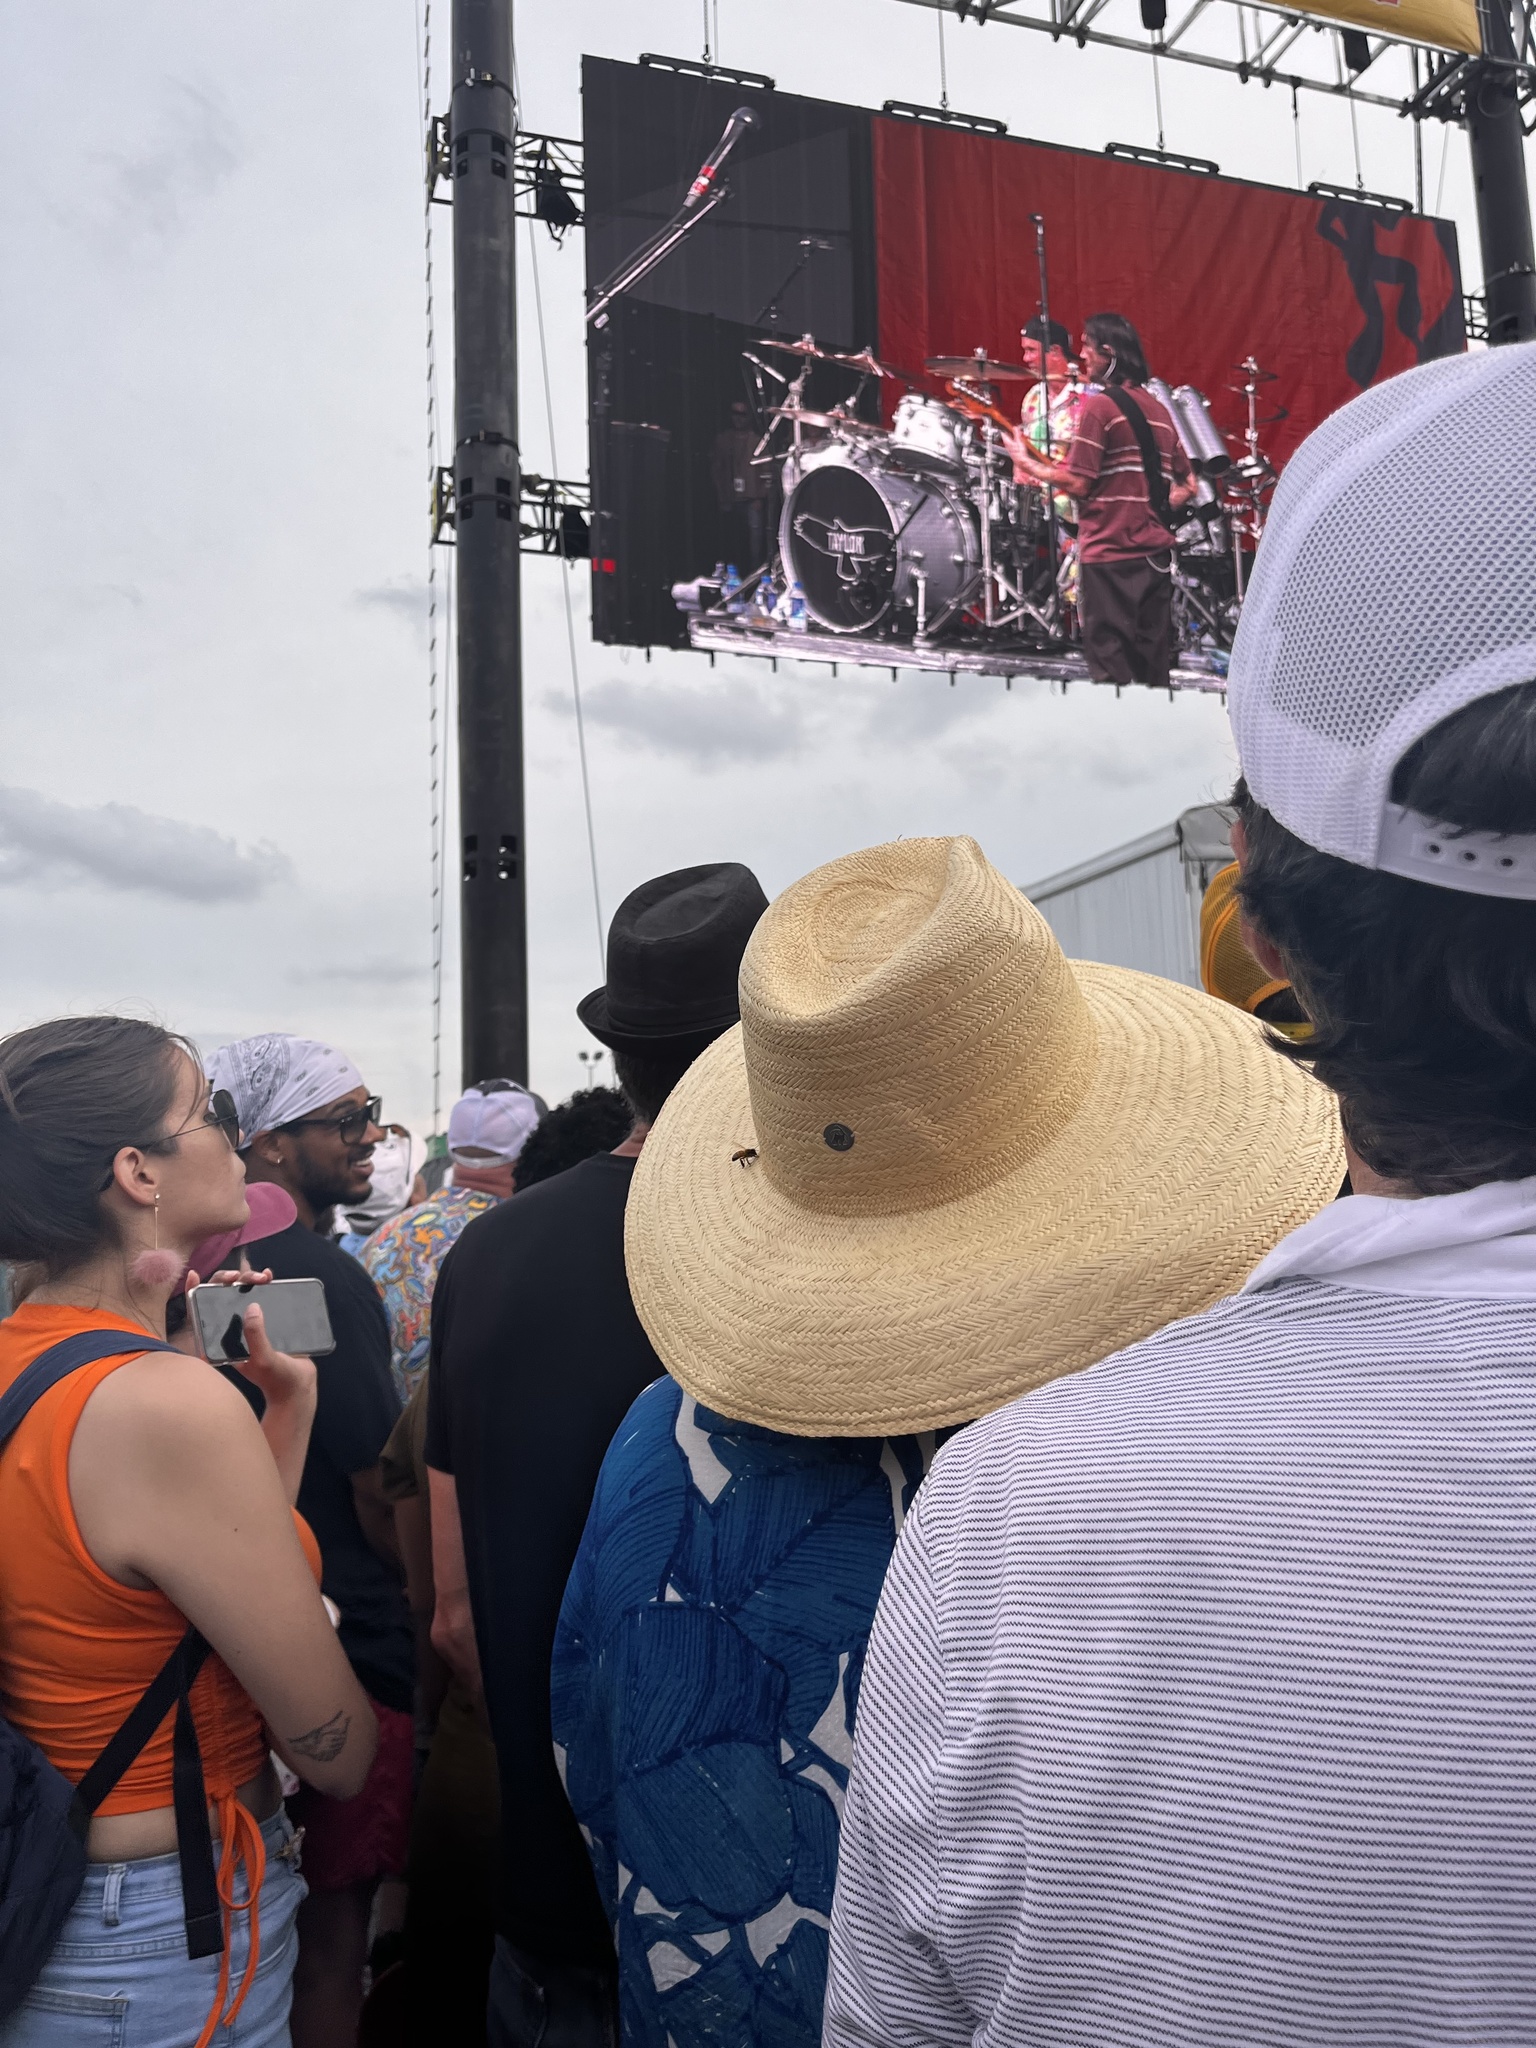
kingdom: Animalia
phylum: Arthropoda
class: Insecta
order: Hymenoptera
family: Apidae
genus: Apis
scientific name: Apis mellifera
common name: Honey bee
